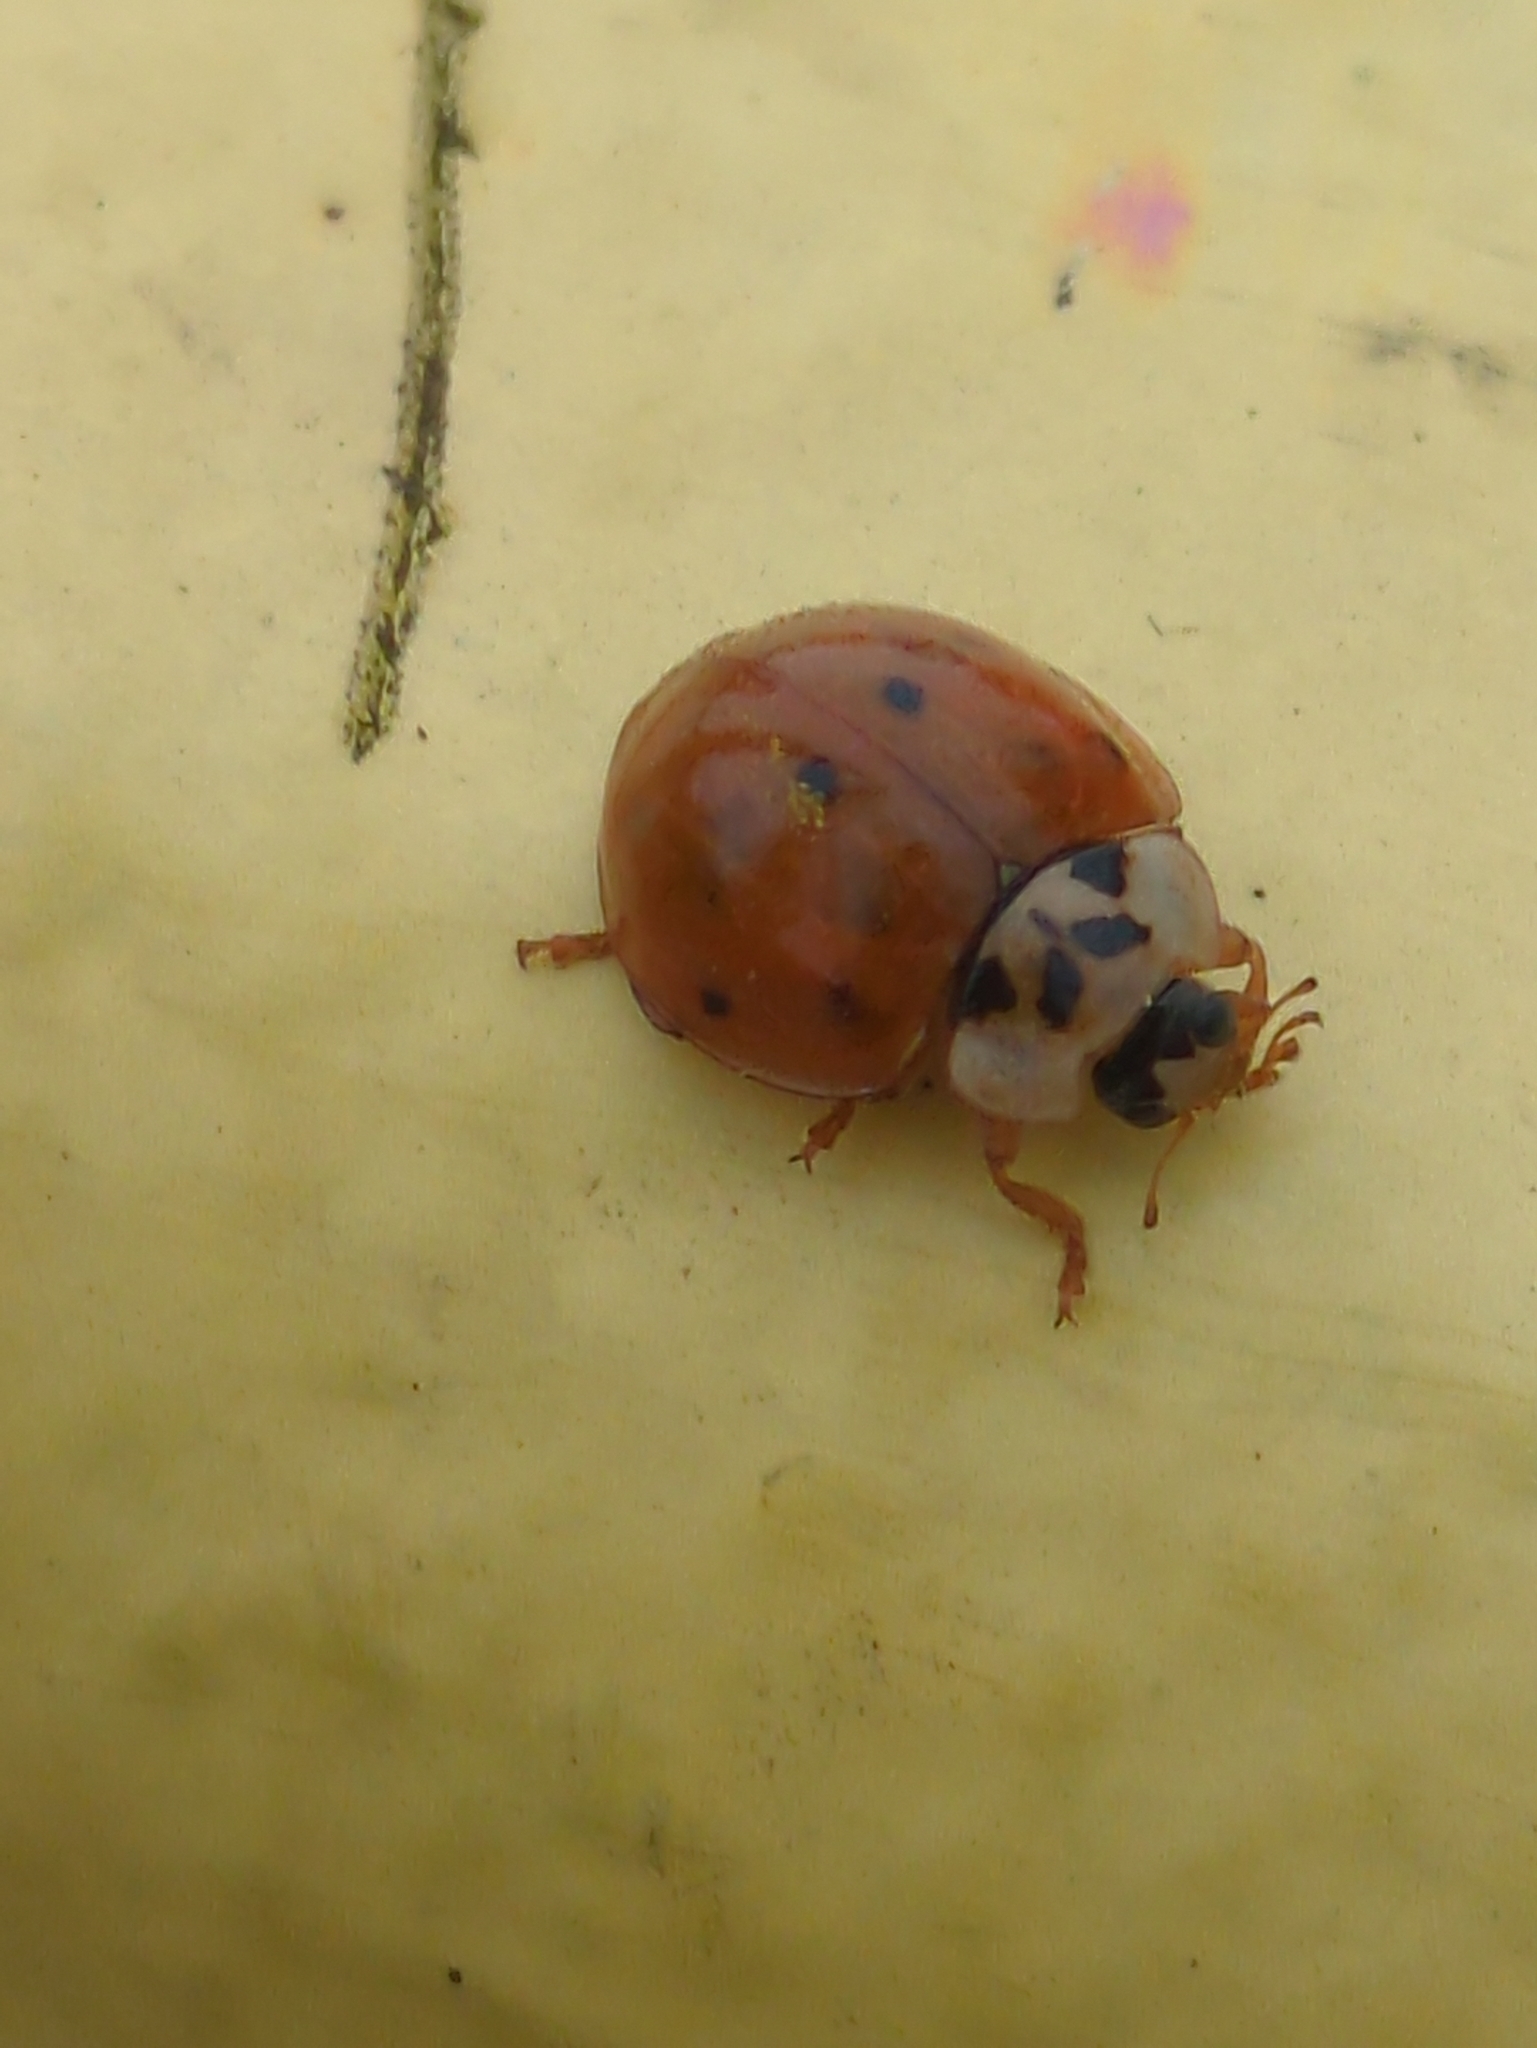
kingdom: Animalia
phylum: Arthropoda
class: Insecta
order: Coleoptera
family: Coccinellidae
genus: Harmonia
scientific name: Harmonia axyridis
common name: Harlequin ladybird
